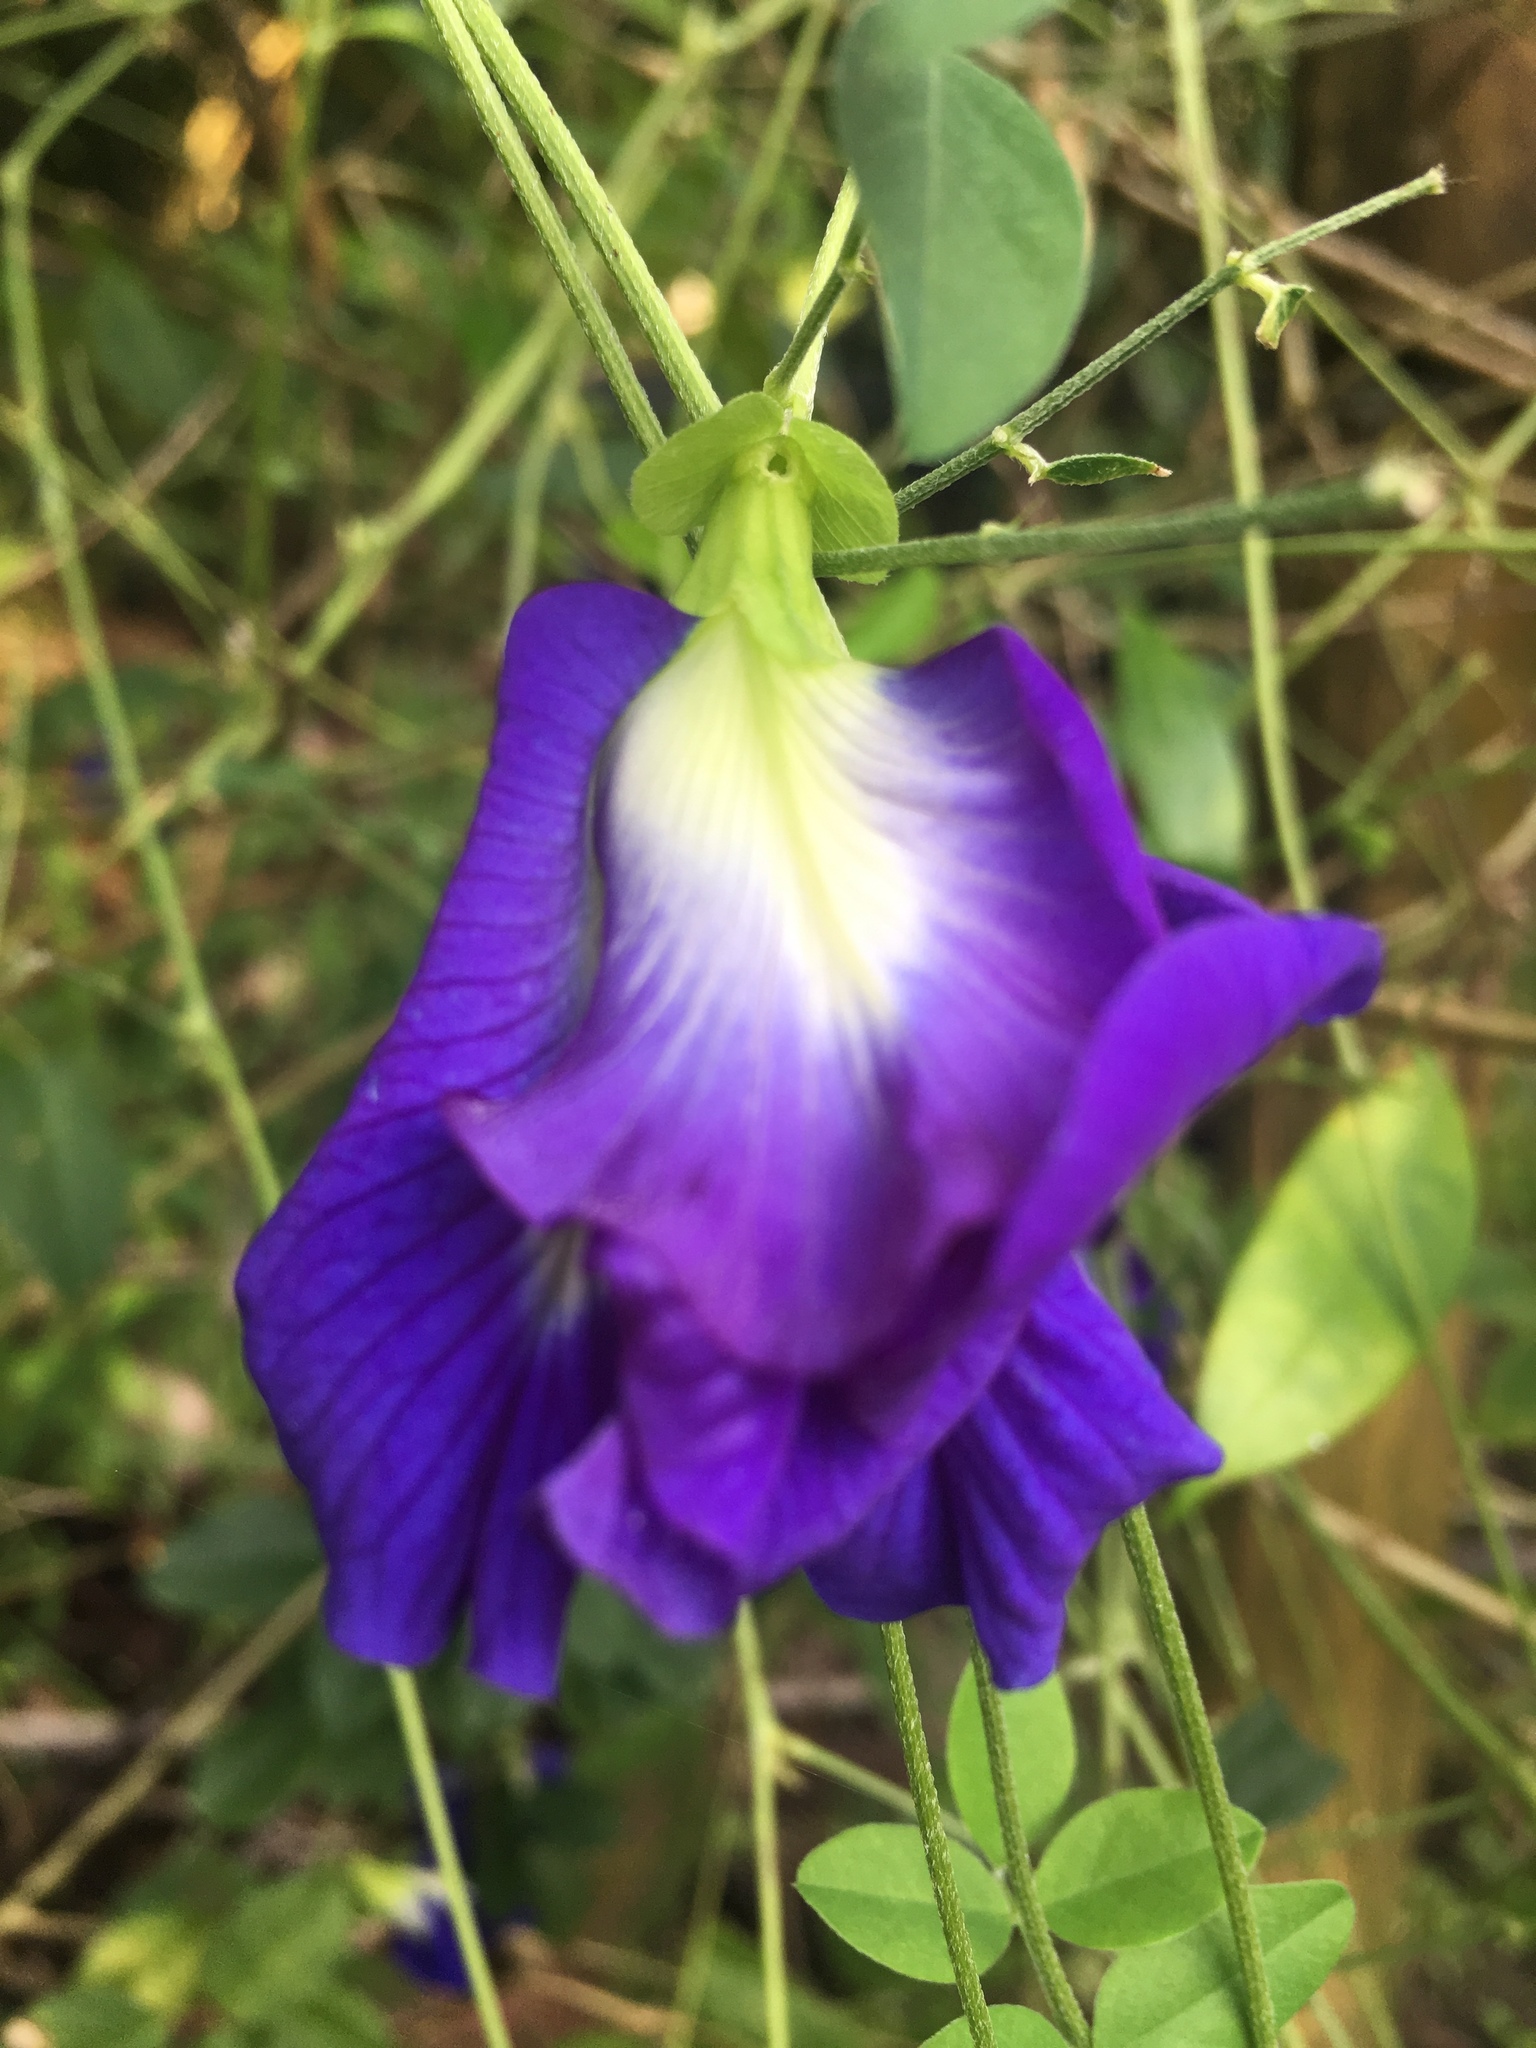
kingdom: Plantae
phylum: Tracheophyta
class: Magnoliopsida
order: Fabales
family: Fabaceae
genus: Clitoria
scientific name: Clitoria ternatea
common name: Asian pigeonwings
